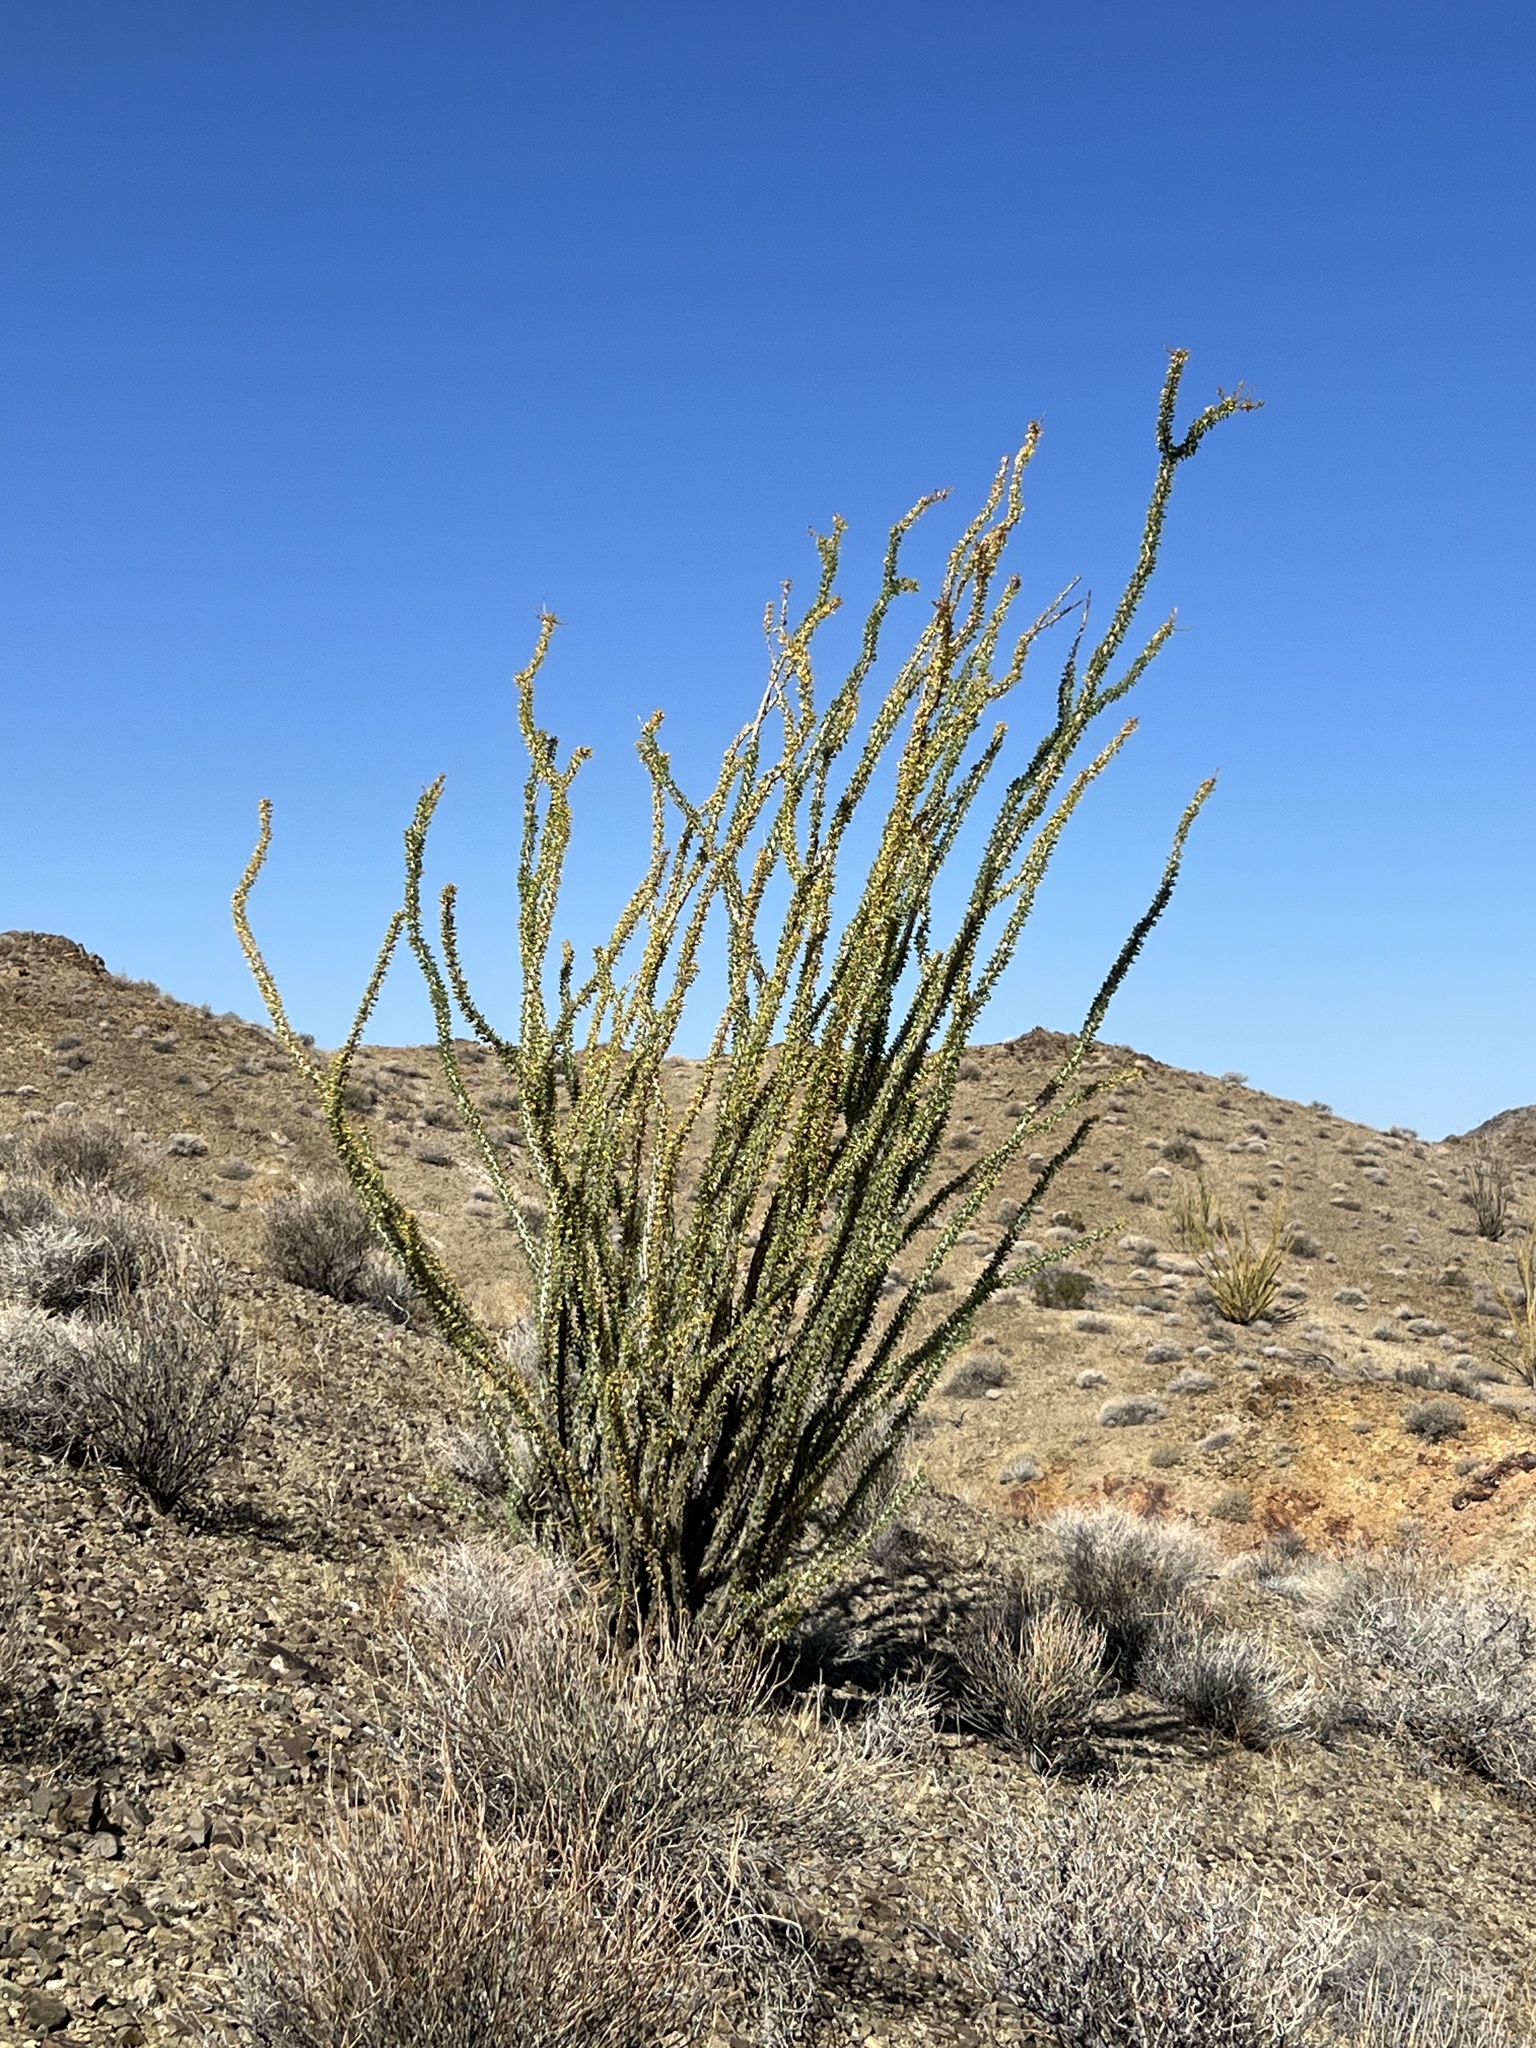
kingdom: Plantae
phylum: Tracheophyta
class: Magnoliopsida
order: Ericales
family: Fouquieriaceae
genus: Fouquieria
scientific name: Fouquieria splendens
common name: Vine-cactus
